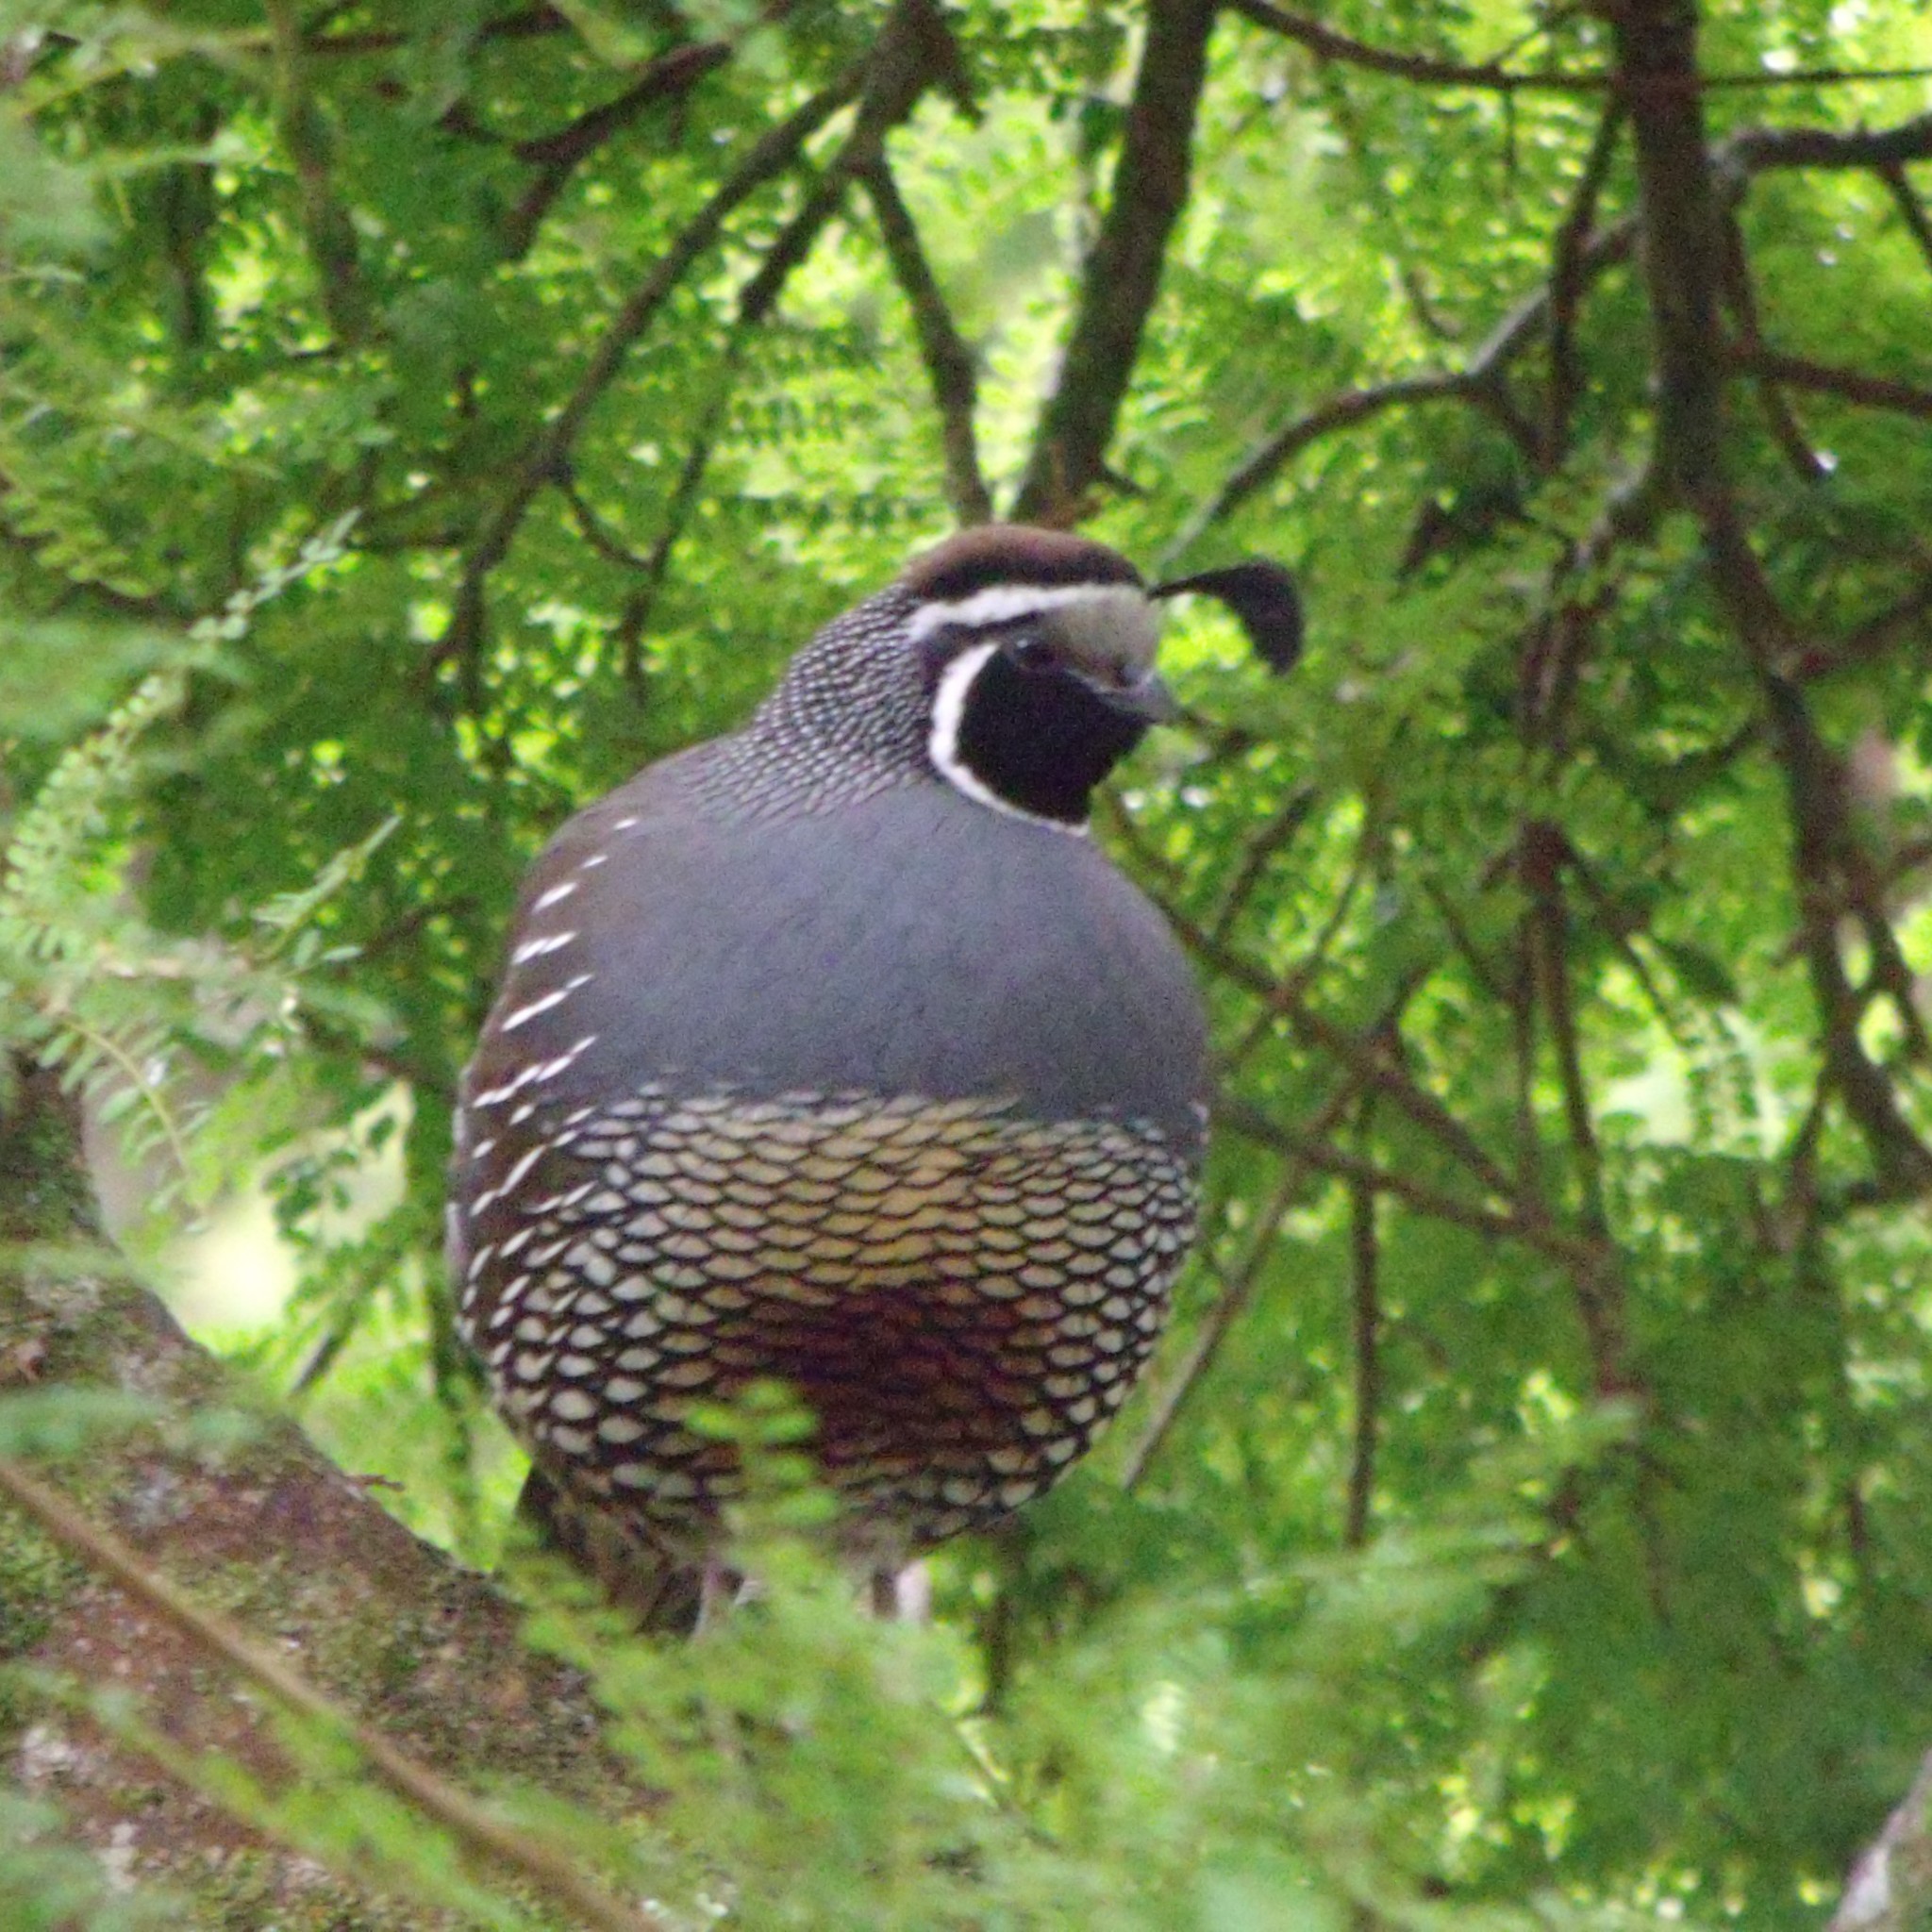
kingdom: Animalia
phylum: Chordata
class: Aves
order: Galliformes
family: Odontophoridae
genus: Callipepla
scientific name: Callipepla californica
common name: California quail
